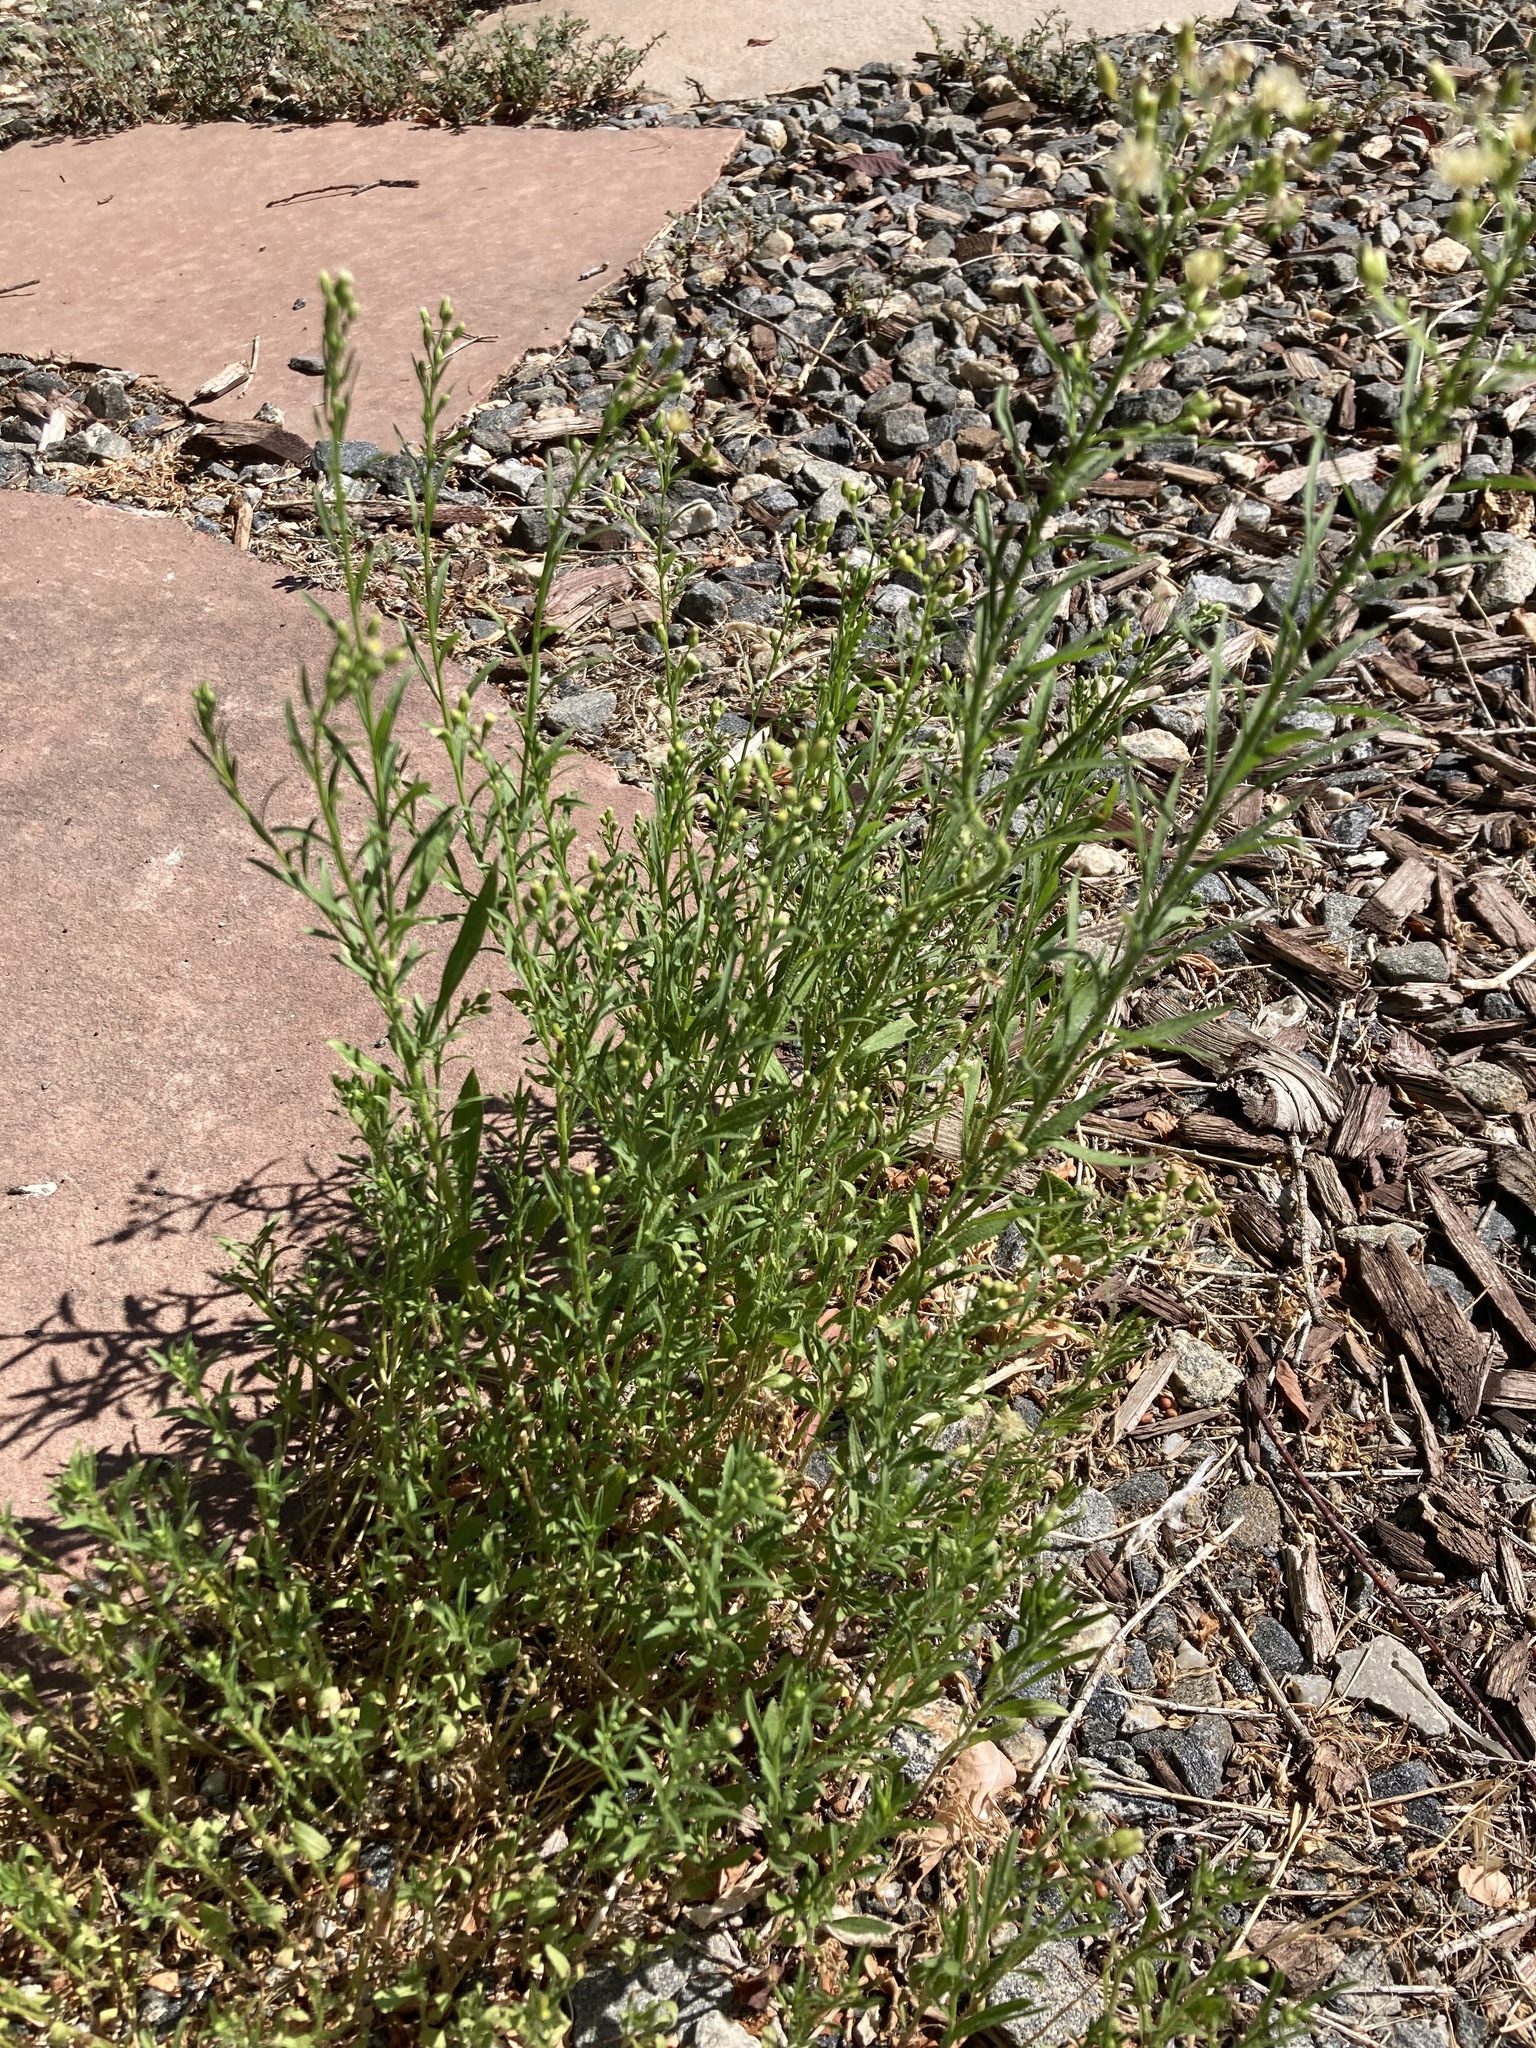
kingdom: Plantae
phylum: Tracheophyta
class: Magnoliopsida
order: Asterales
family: Asteraceae
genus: Erigeron
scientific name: Erigeron canadensis
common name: Canadian fleabane
